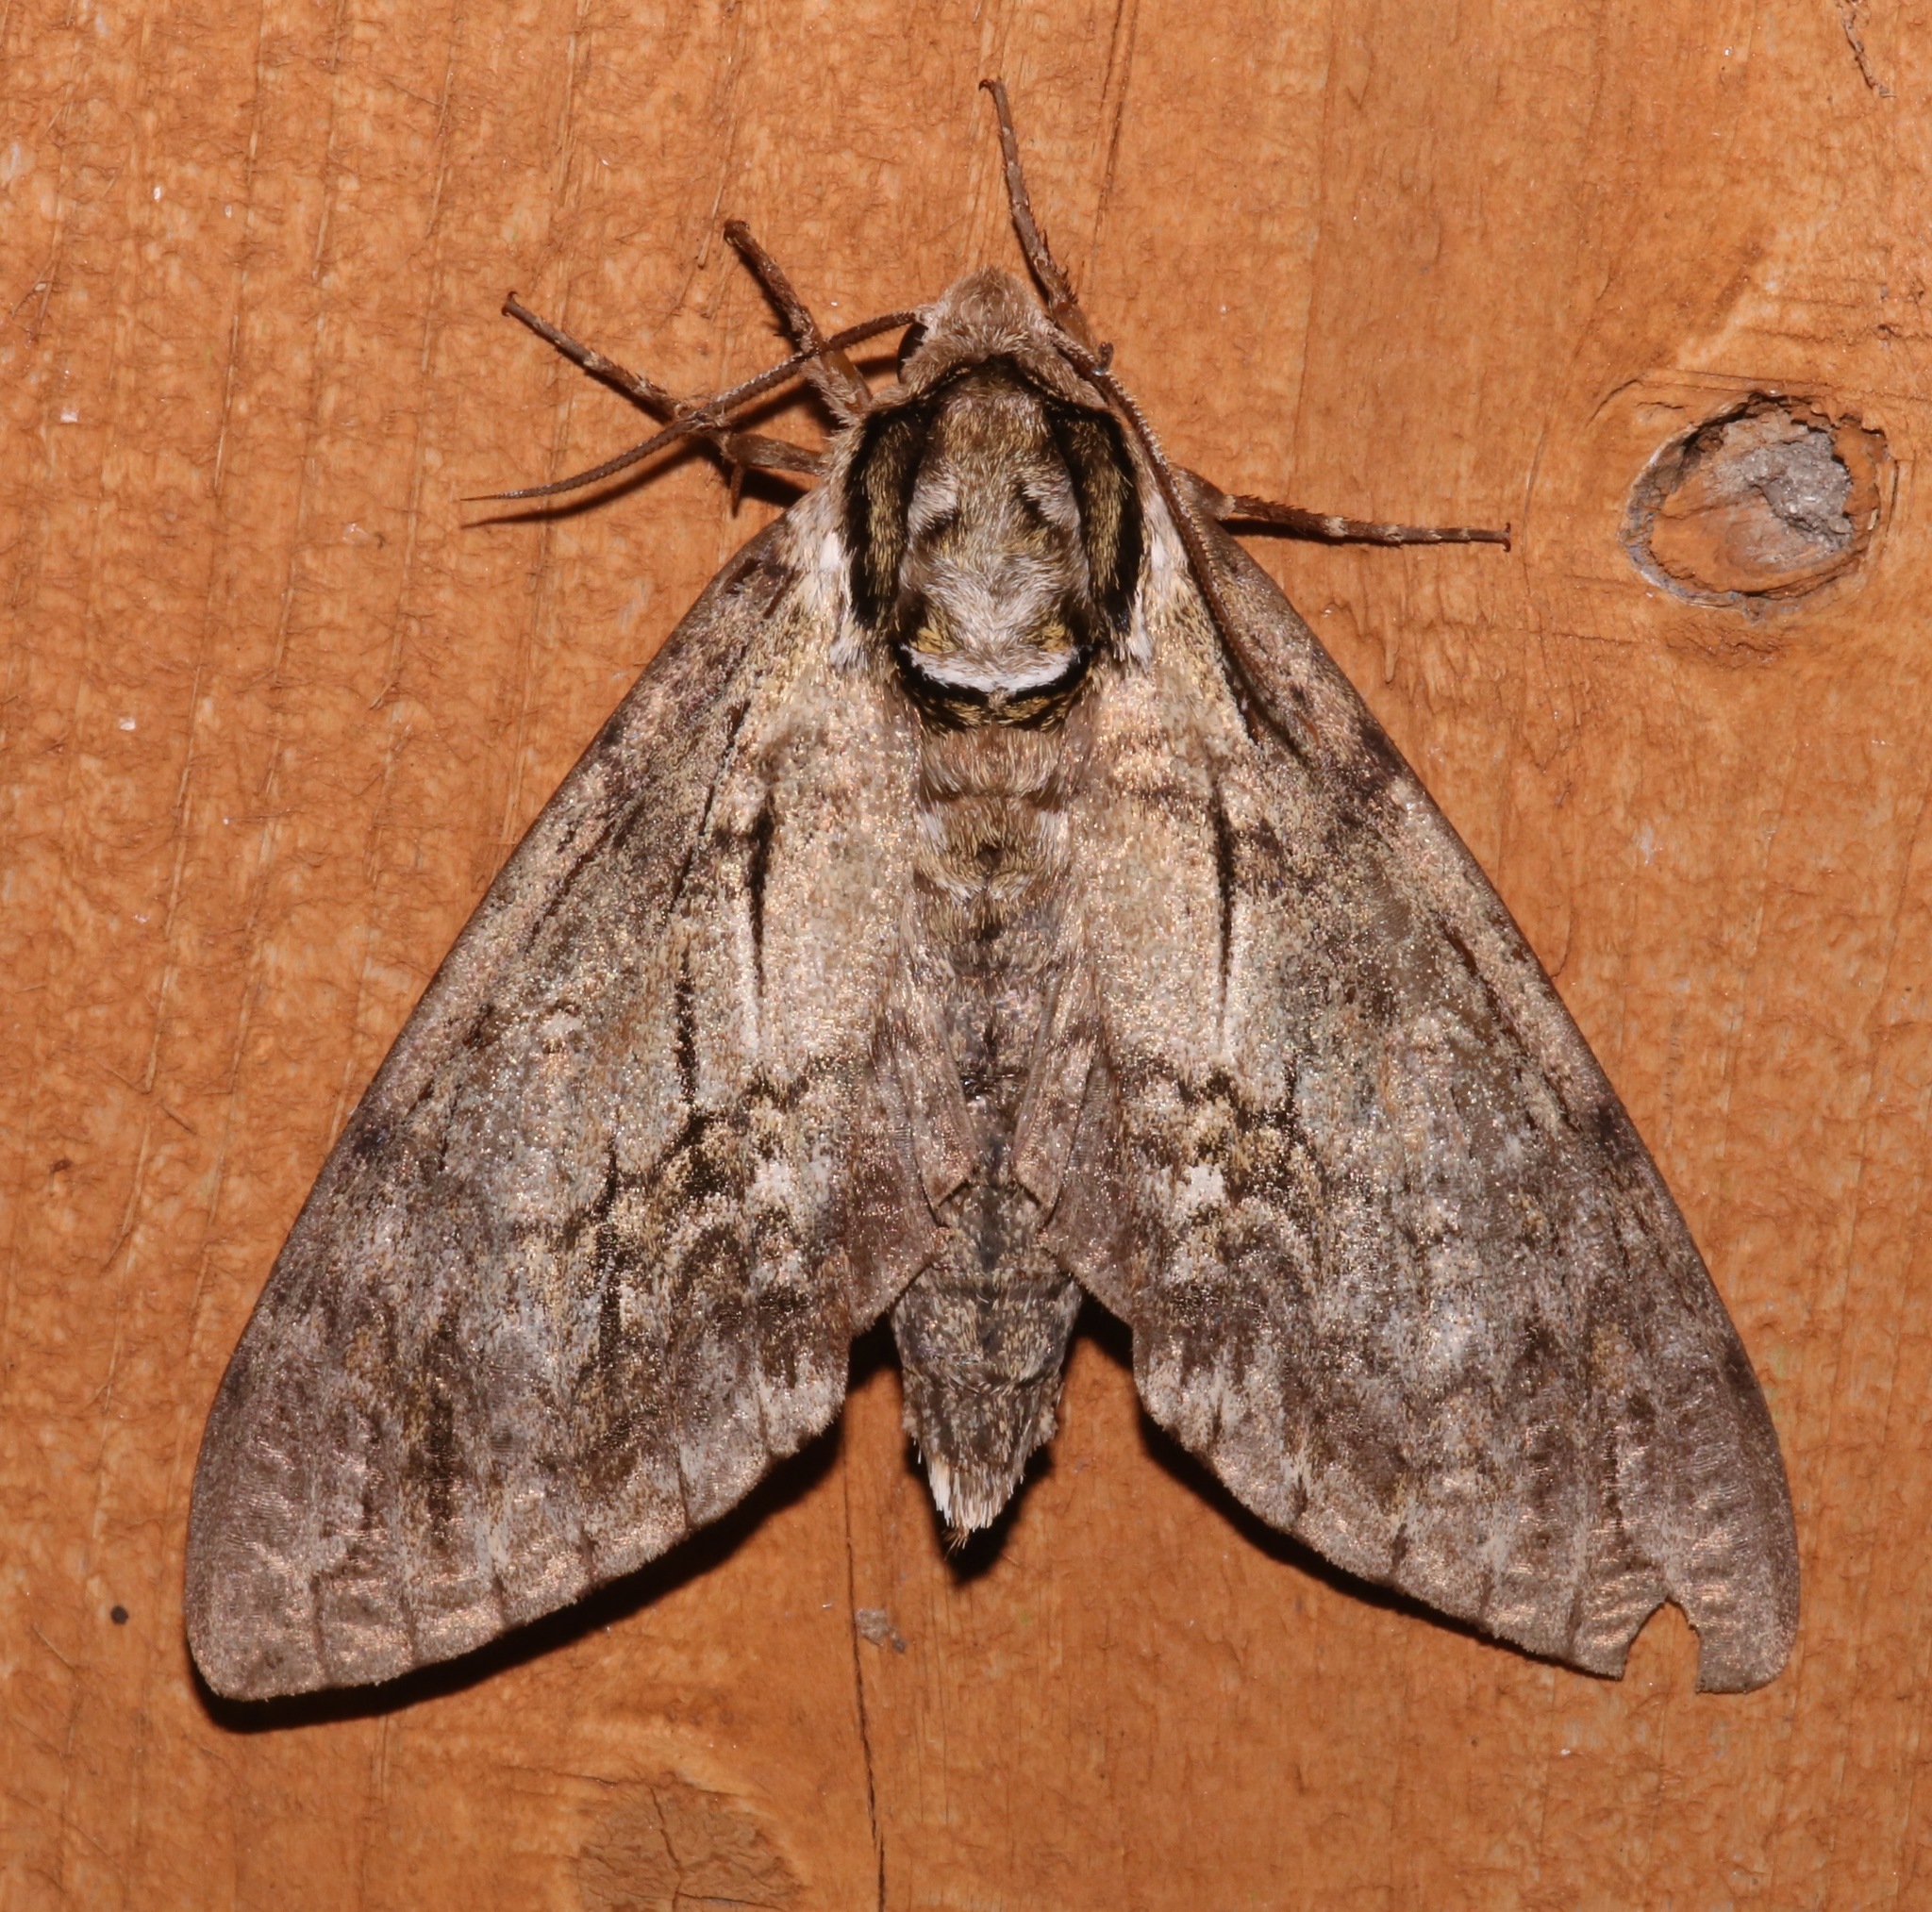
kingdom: Animalia
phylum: Arthropoda
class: Insecta
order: Lepidoptera
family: Sphingidae
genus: Ceratomia
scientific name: Ceratomia undulosa
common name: Waved sphinx
